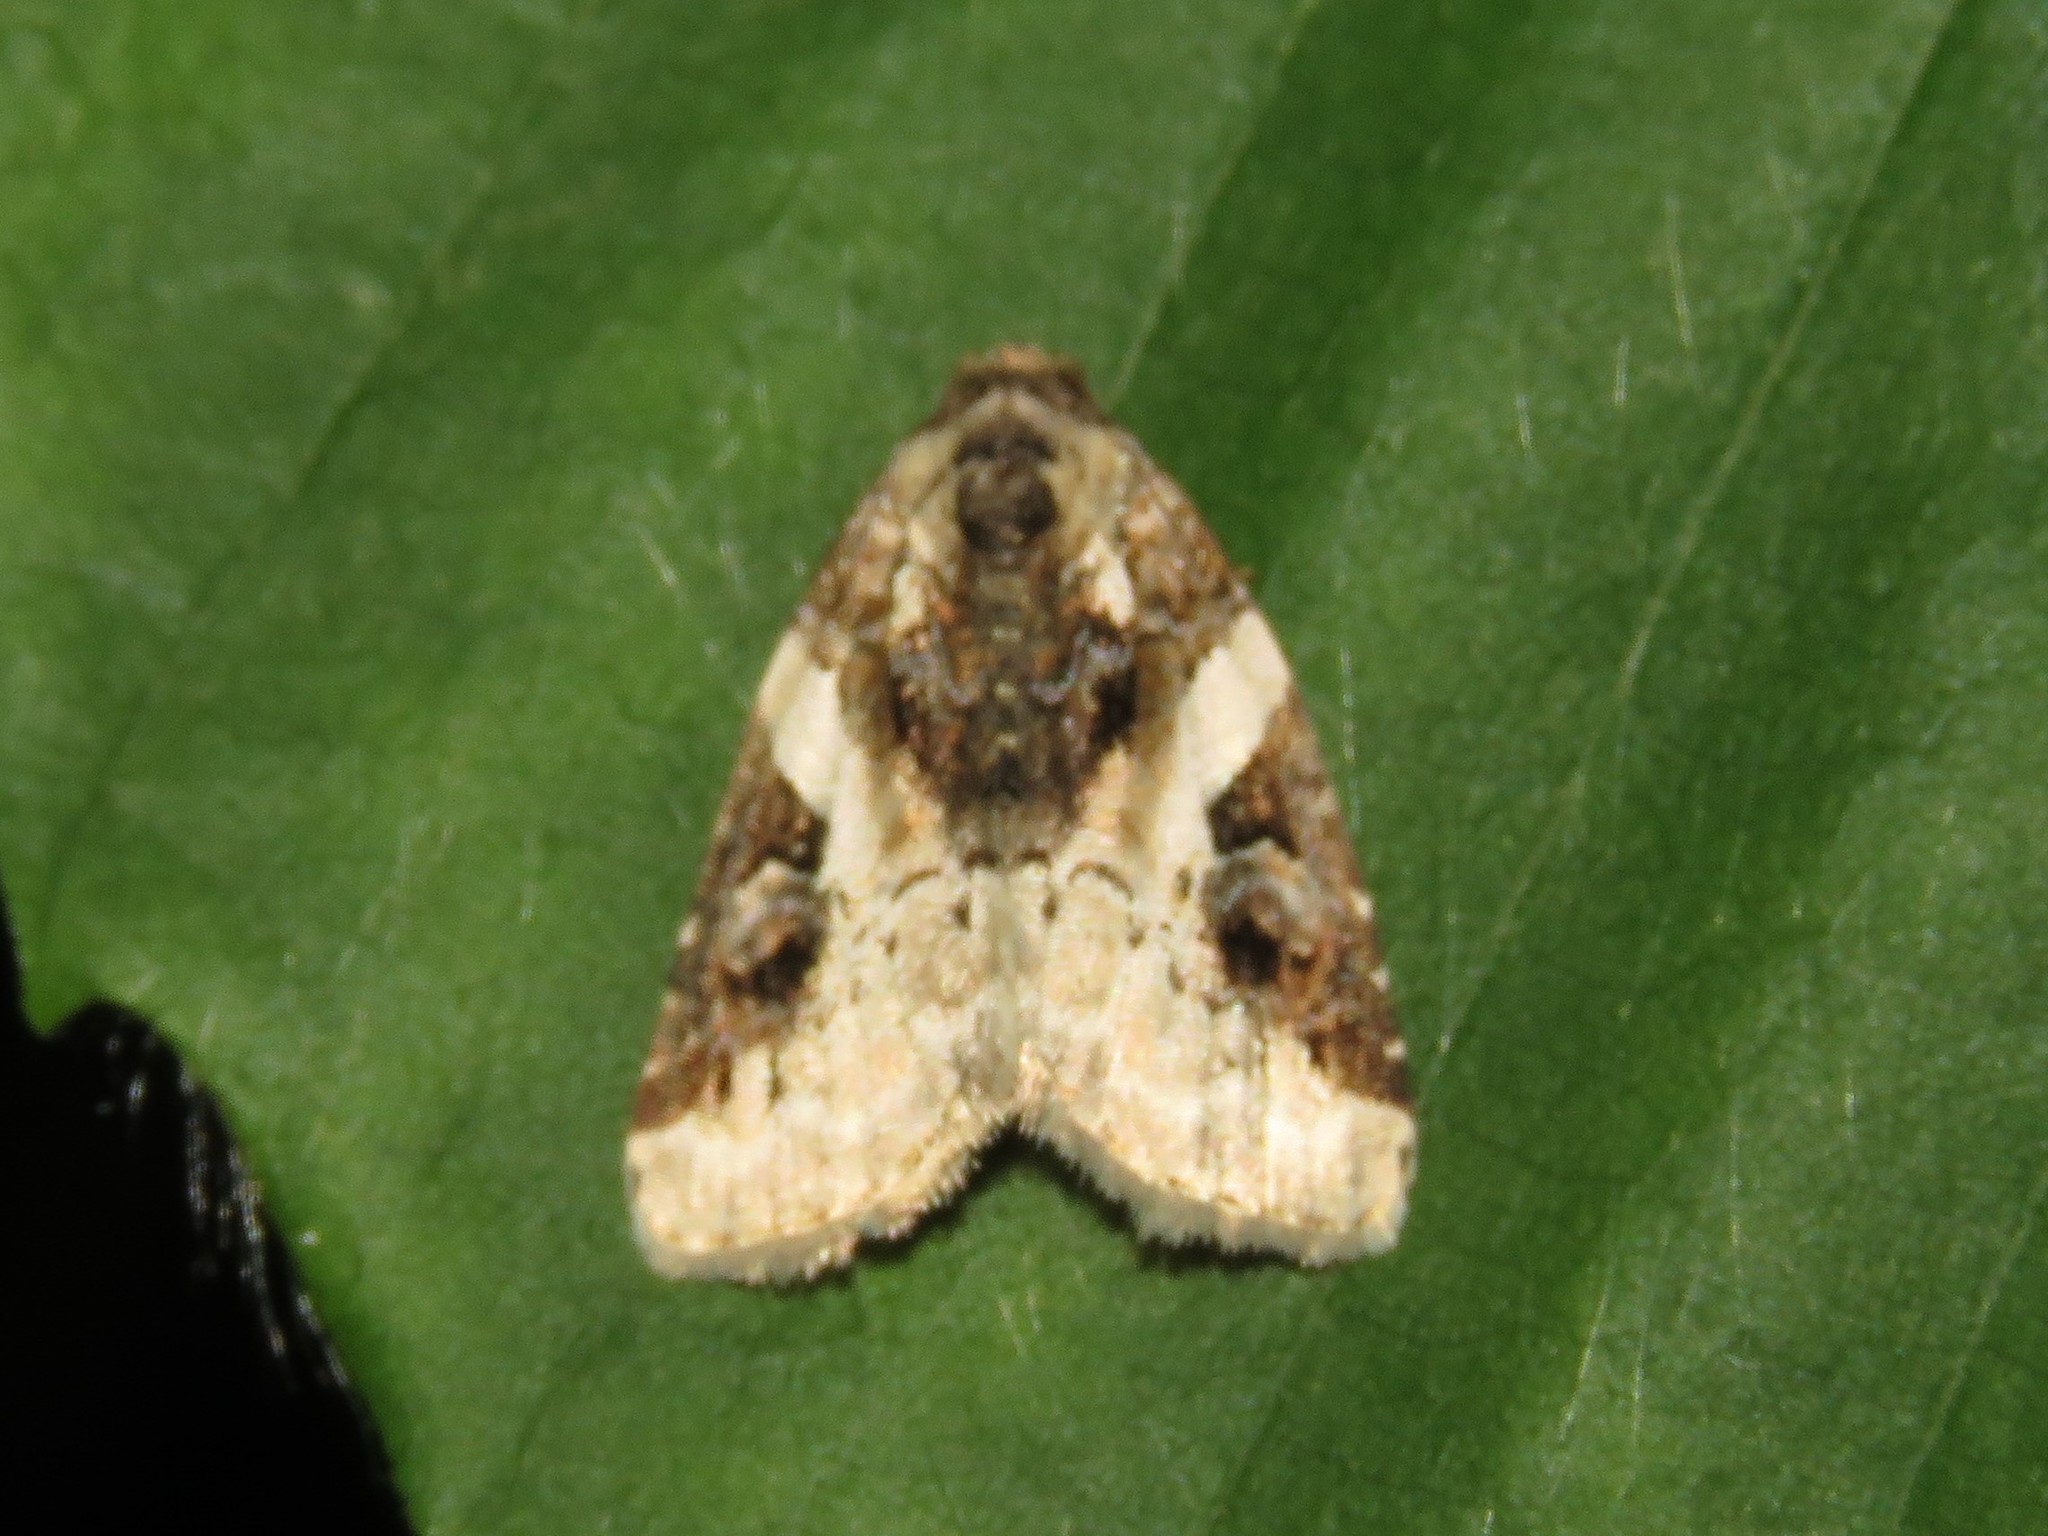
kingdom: Animalia
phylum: Arthropoda
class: Insecta
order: Lepidoptera
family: Noctuidae
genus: Pseudeustrotia
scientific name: Pseudeustrotia carneola
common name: Pink-barred lithacodia moth
